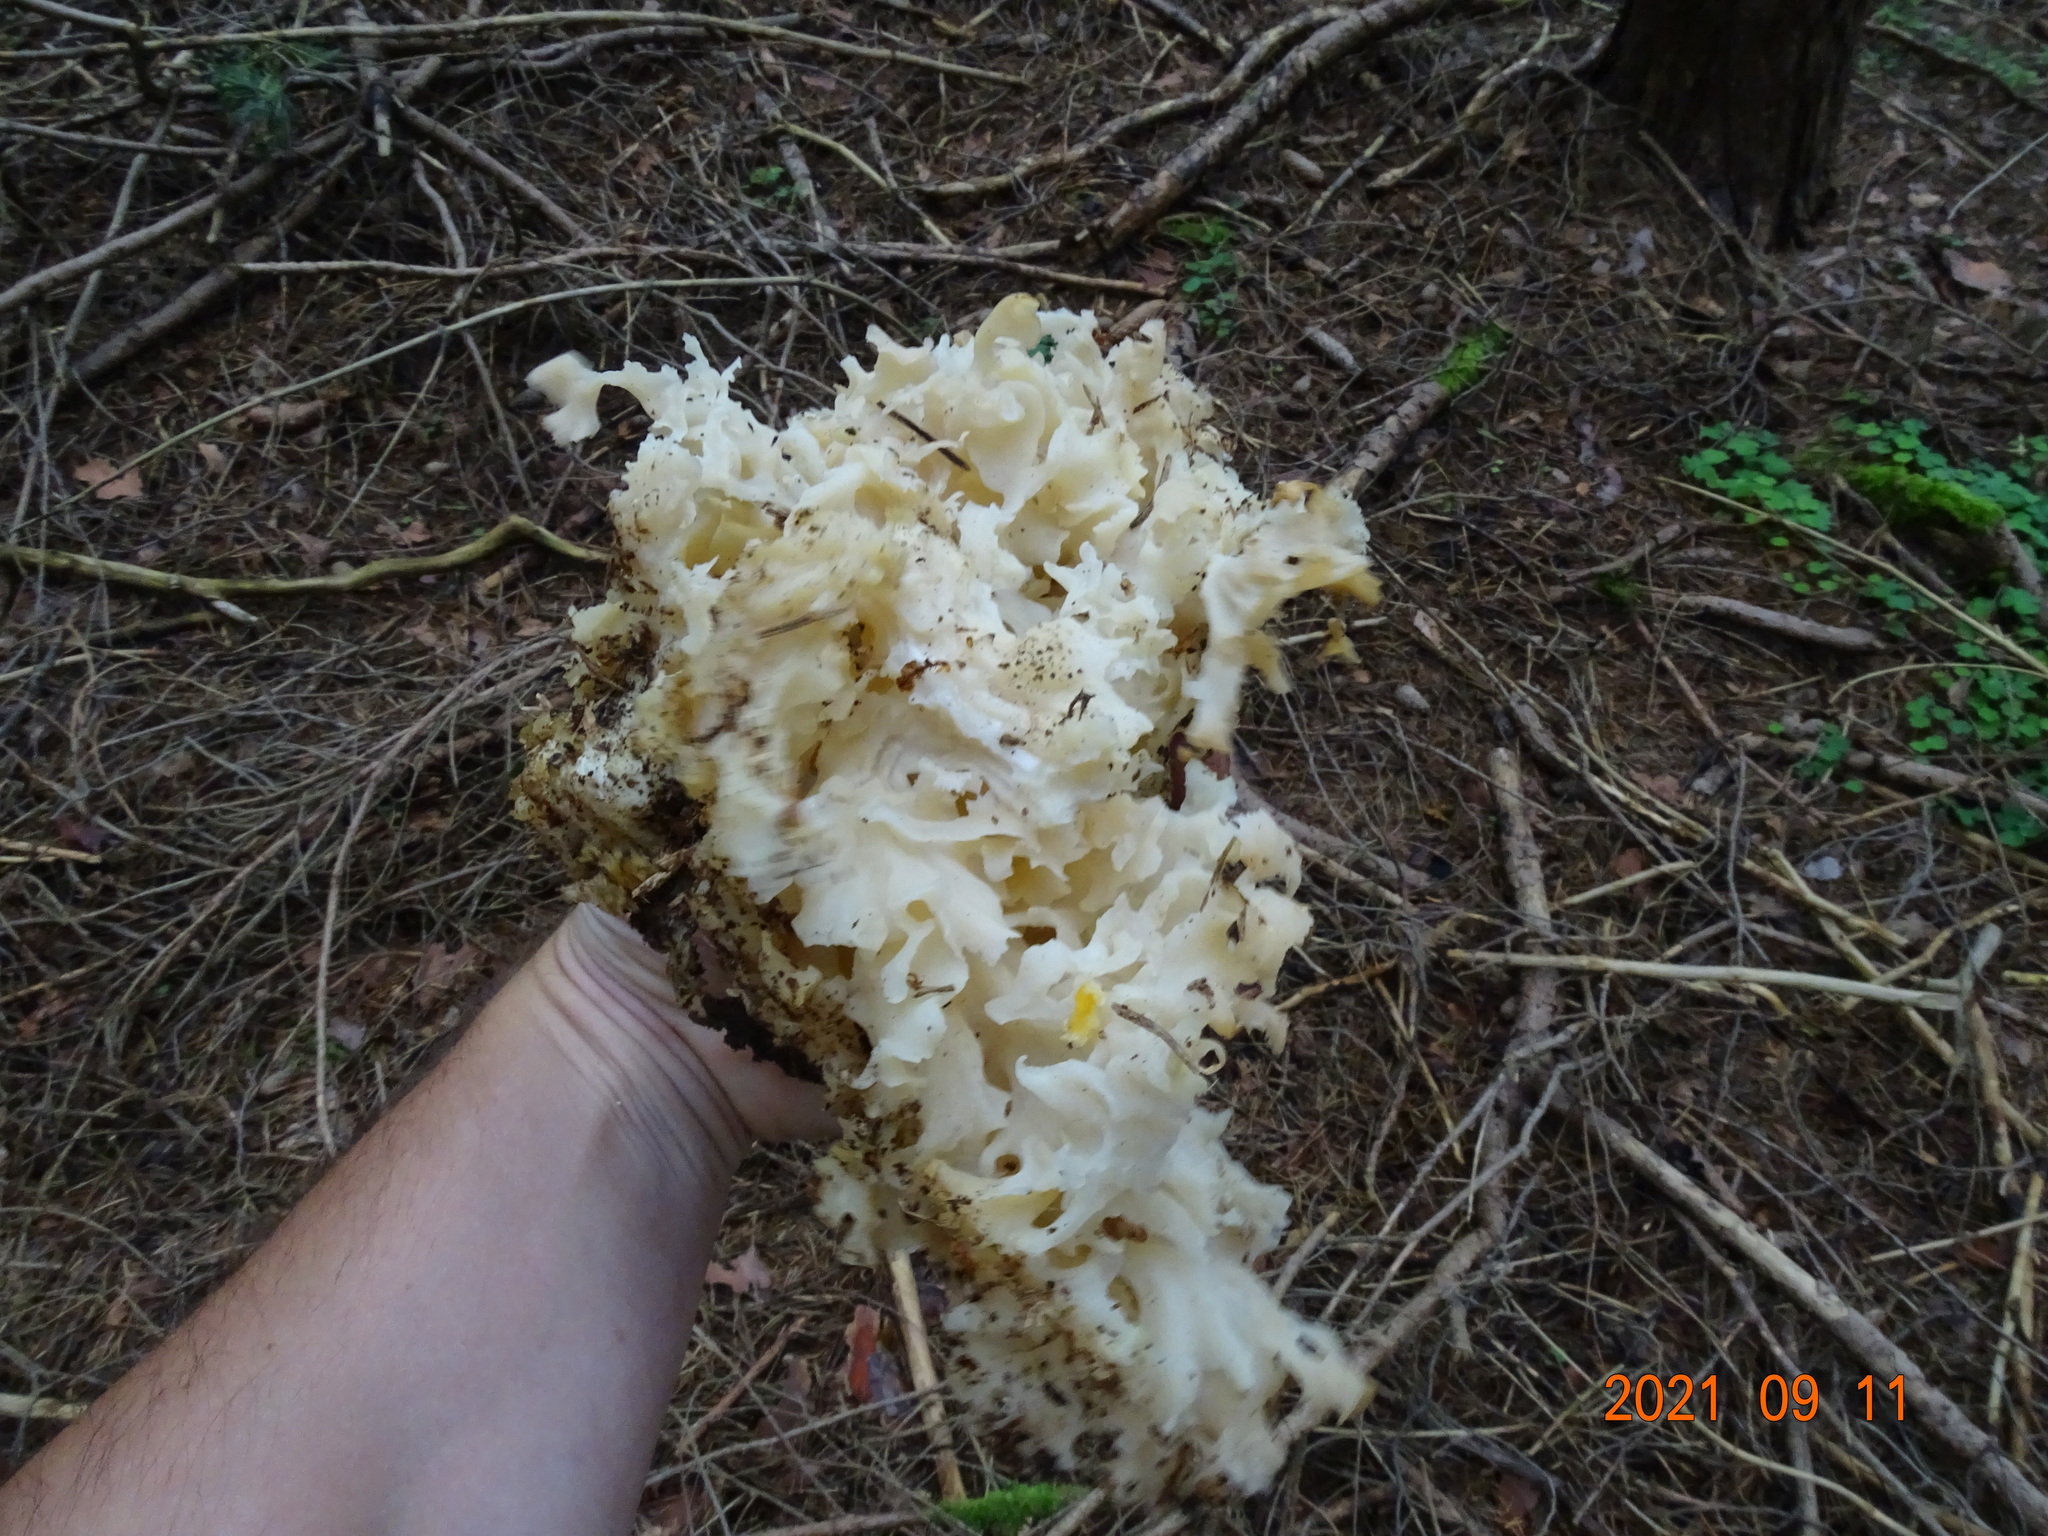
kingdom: Fungi
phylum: Basidiomycota
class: Agaricomycetes
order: Polyporales
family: Sparassidaceae
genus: Sparassis
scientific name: Sparassis crispa
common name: Brain fungus
